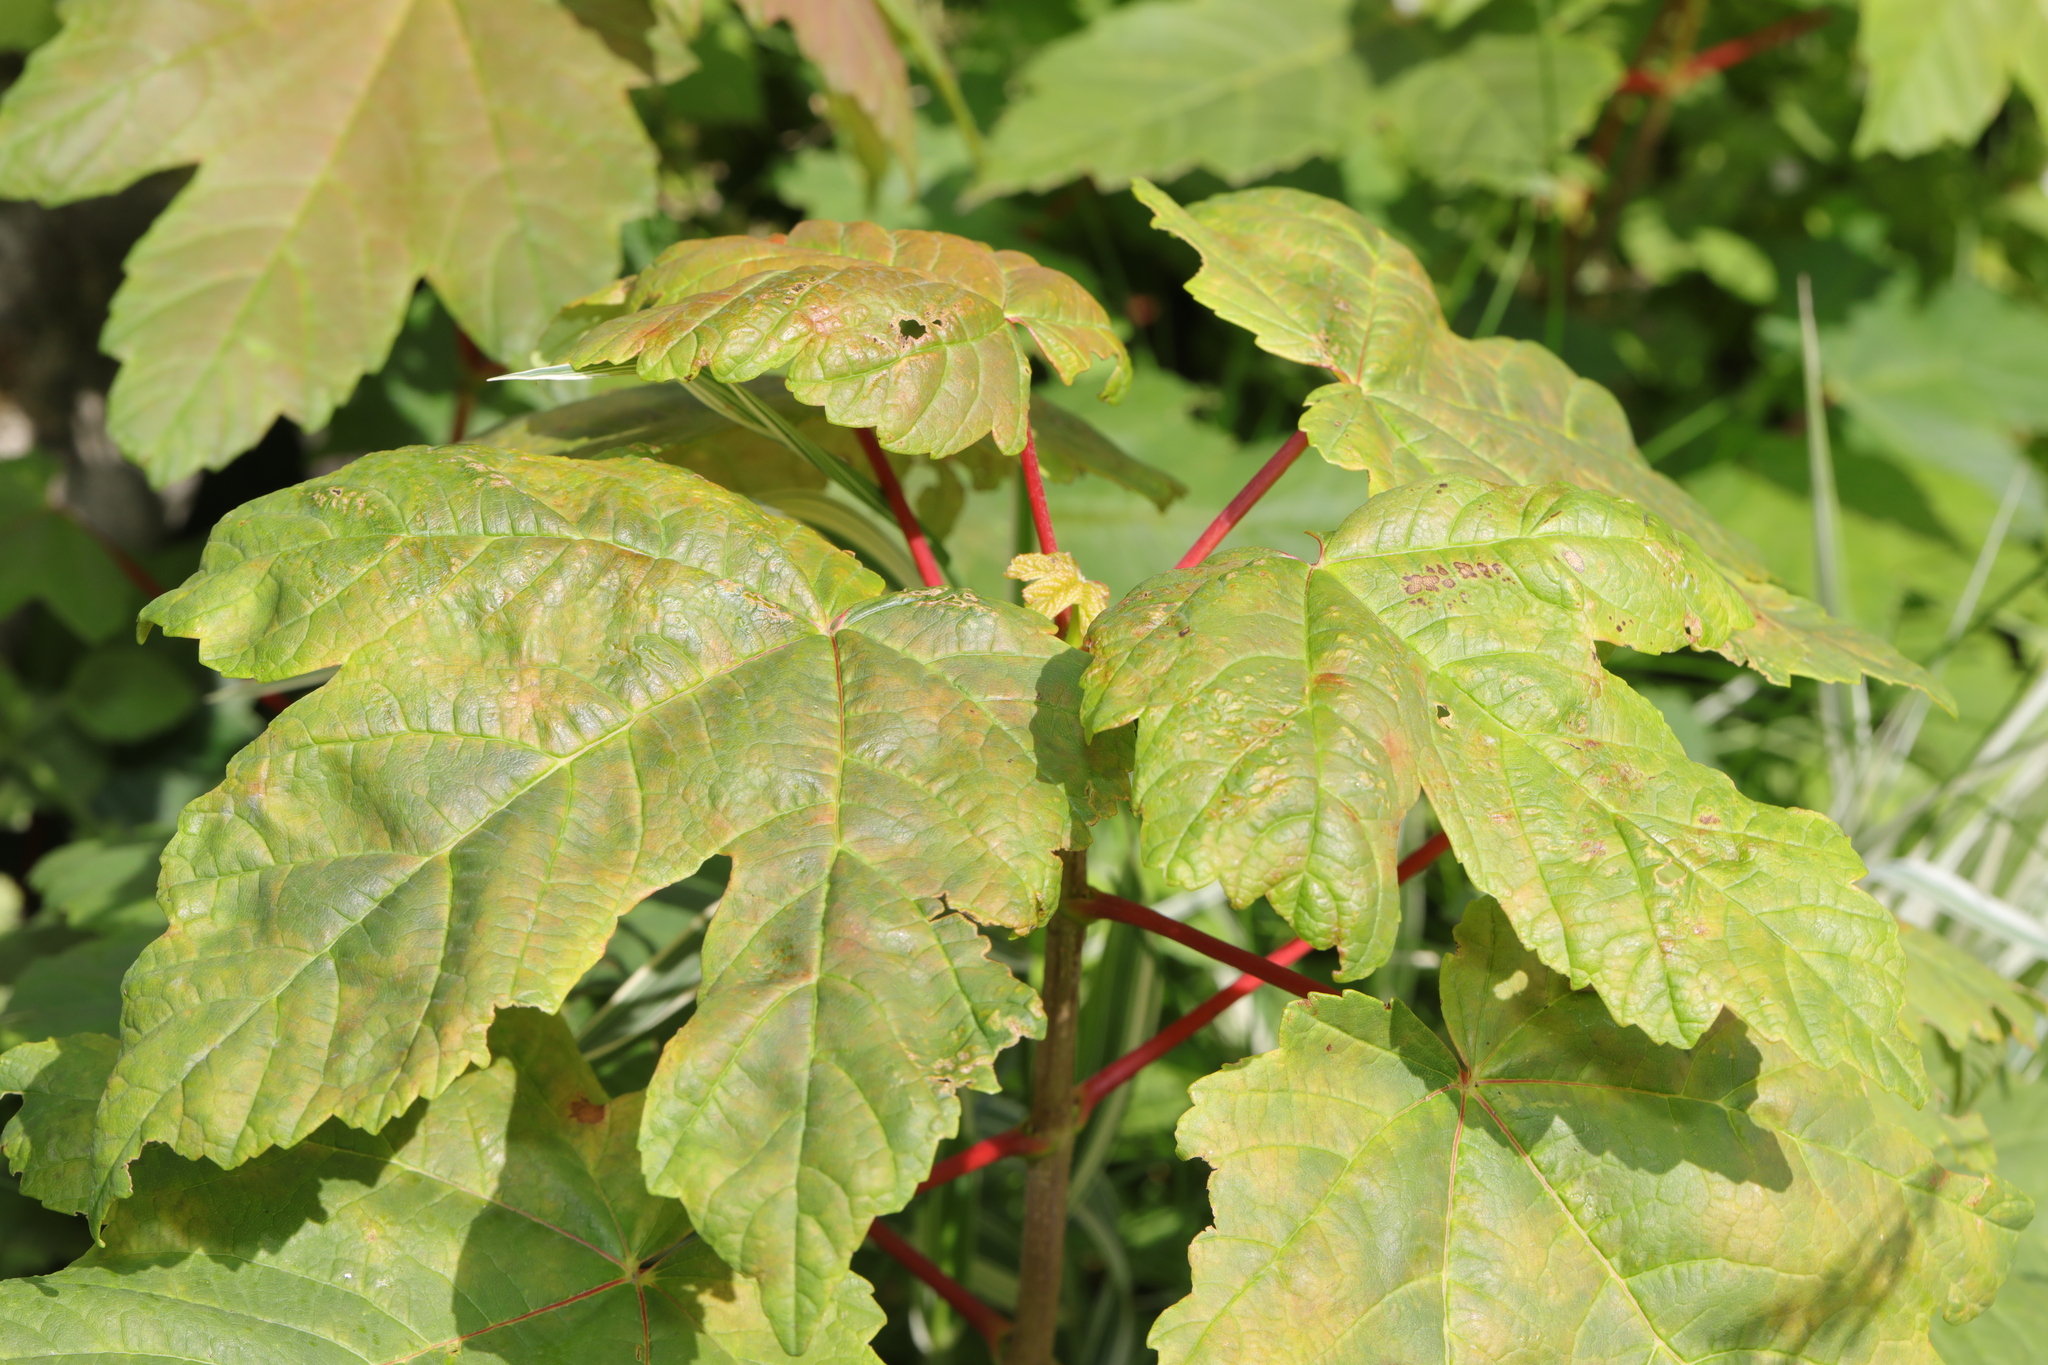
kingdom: Plantae
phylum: Tracheophyta
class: Magnoliopsida
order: Sapindales
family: Sapindaceae
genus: Acer
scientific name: Acer pseudoplatanus
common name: Sycamore
